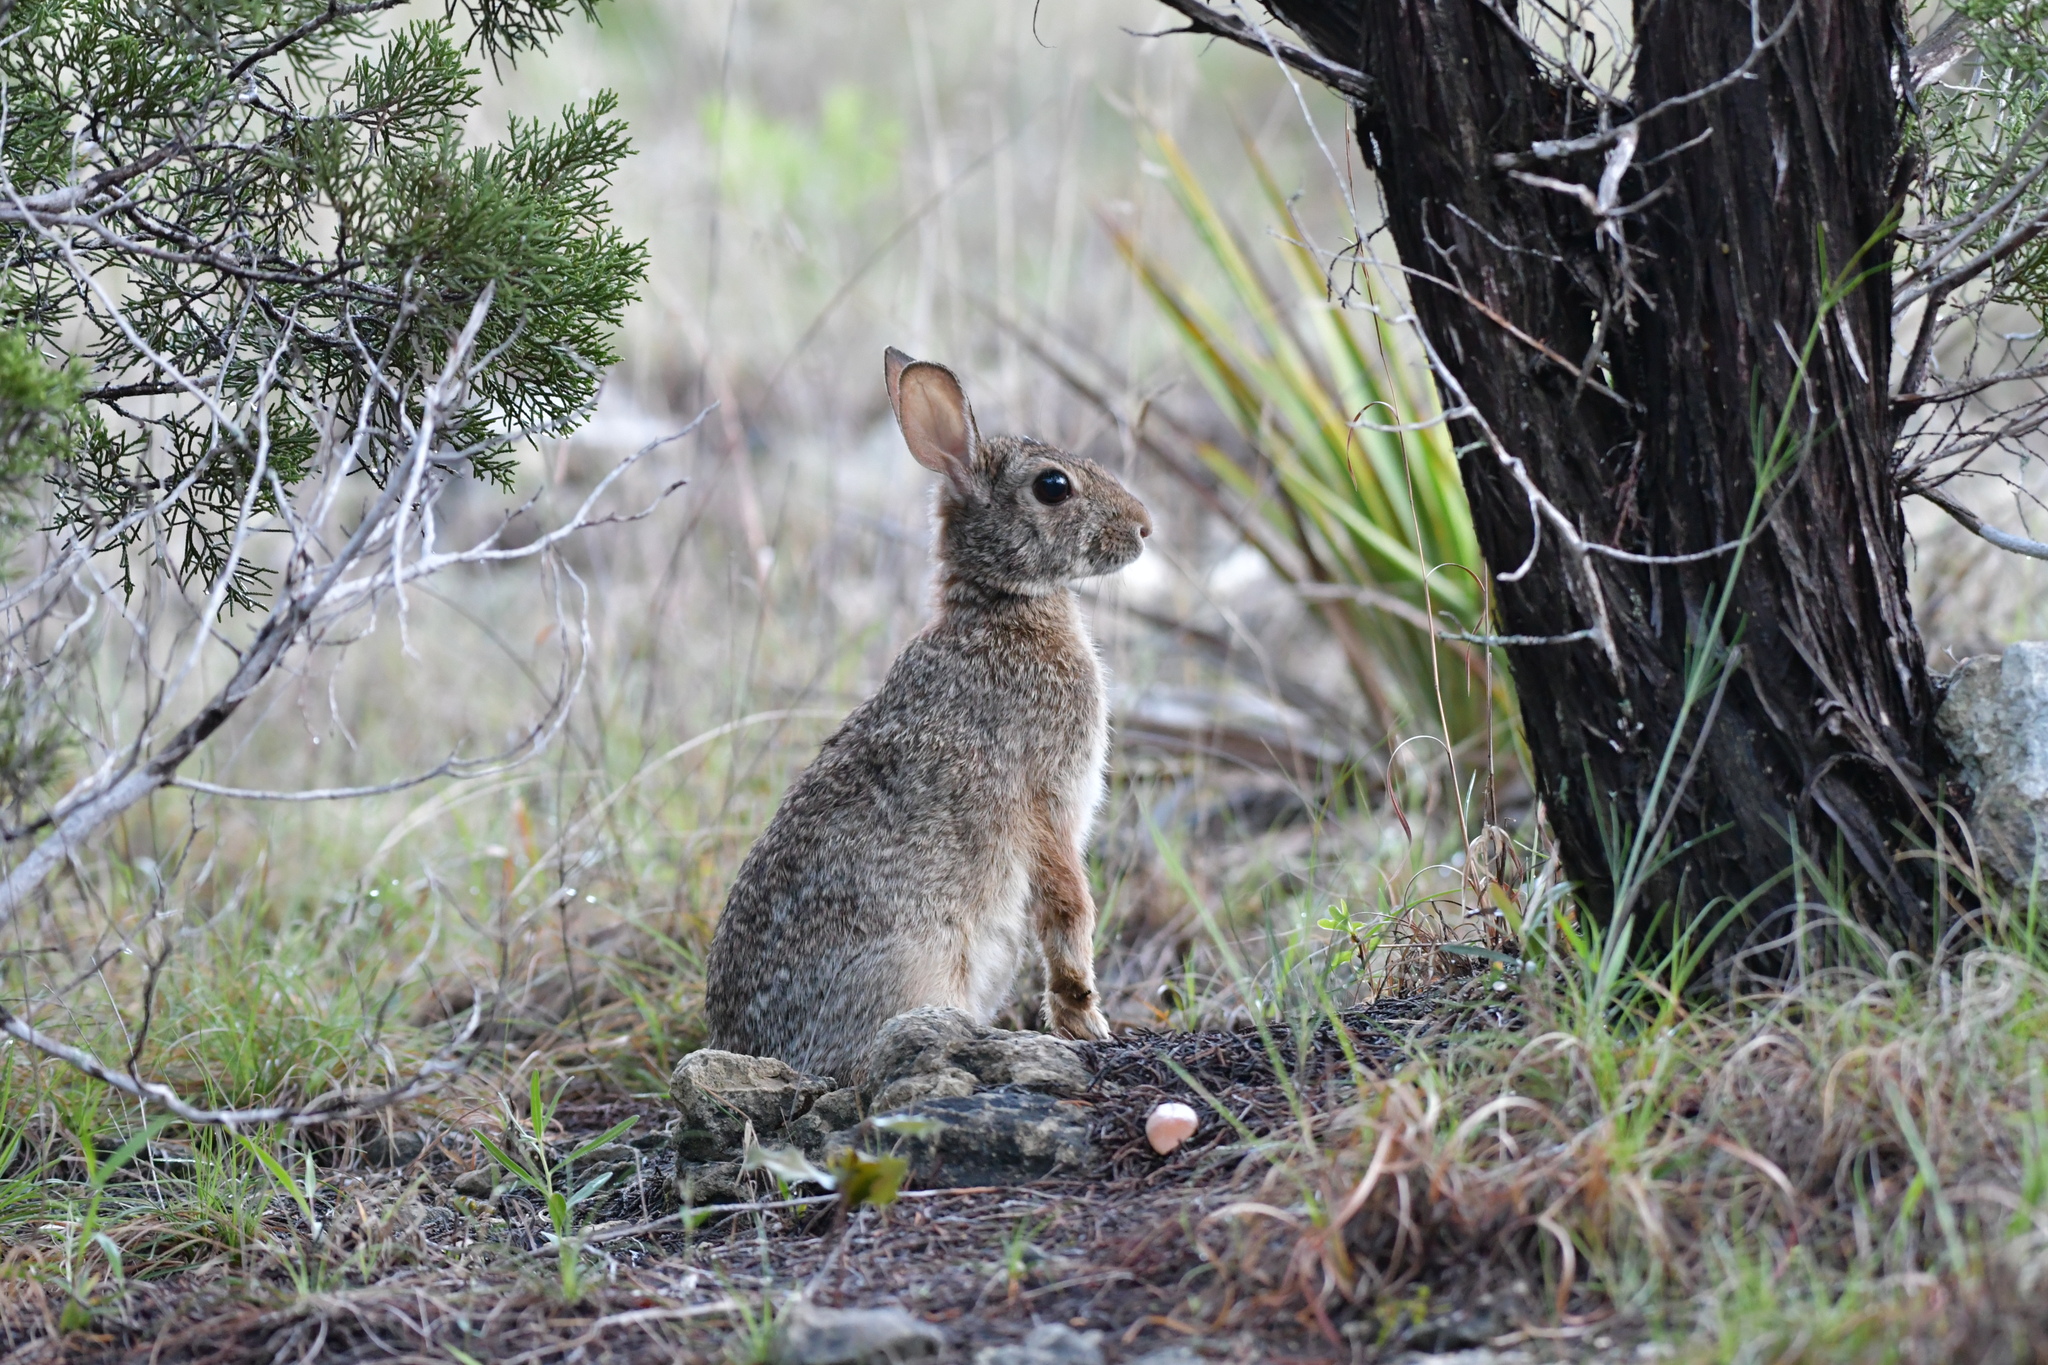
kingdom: Animalia
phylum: Chordata
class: Mammalia
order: Lagomorpha
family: Leporidae
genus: Sylvilagus
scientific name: Sylvilagus floridanus
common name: Eastern cottontail
